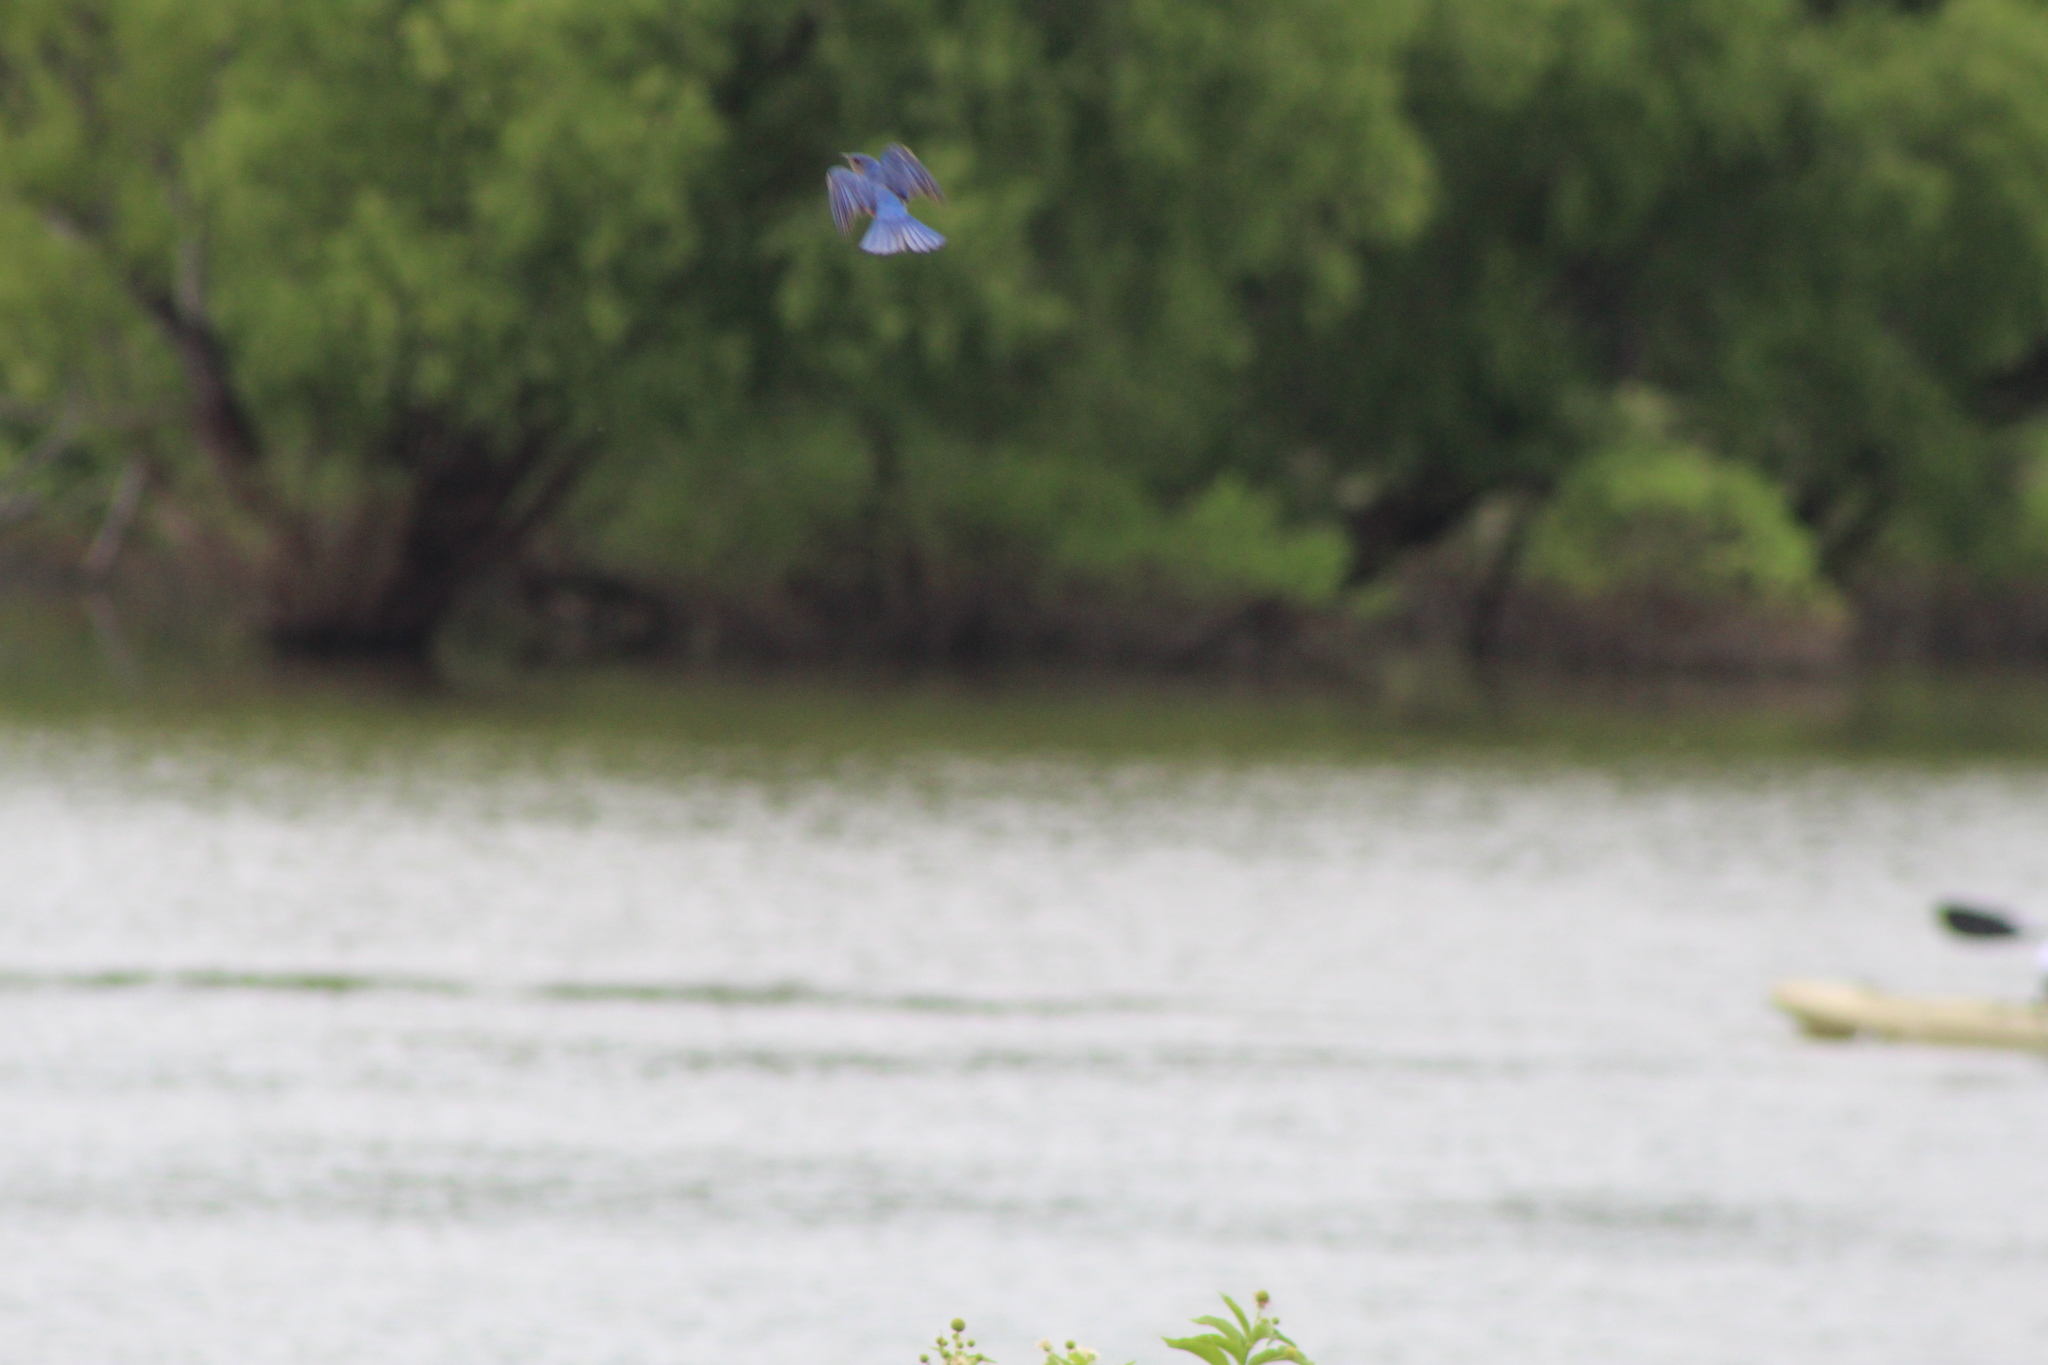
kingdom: Animalia
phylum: Chordata
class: Aves
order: Passeriformes
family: Turdidae
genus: Sialia
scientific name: Sialia sialis
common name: Eastern bluebird
